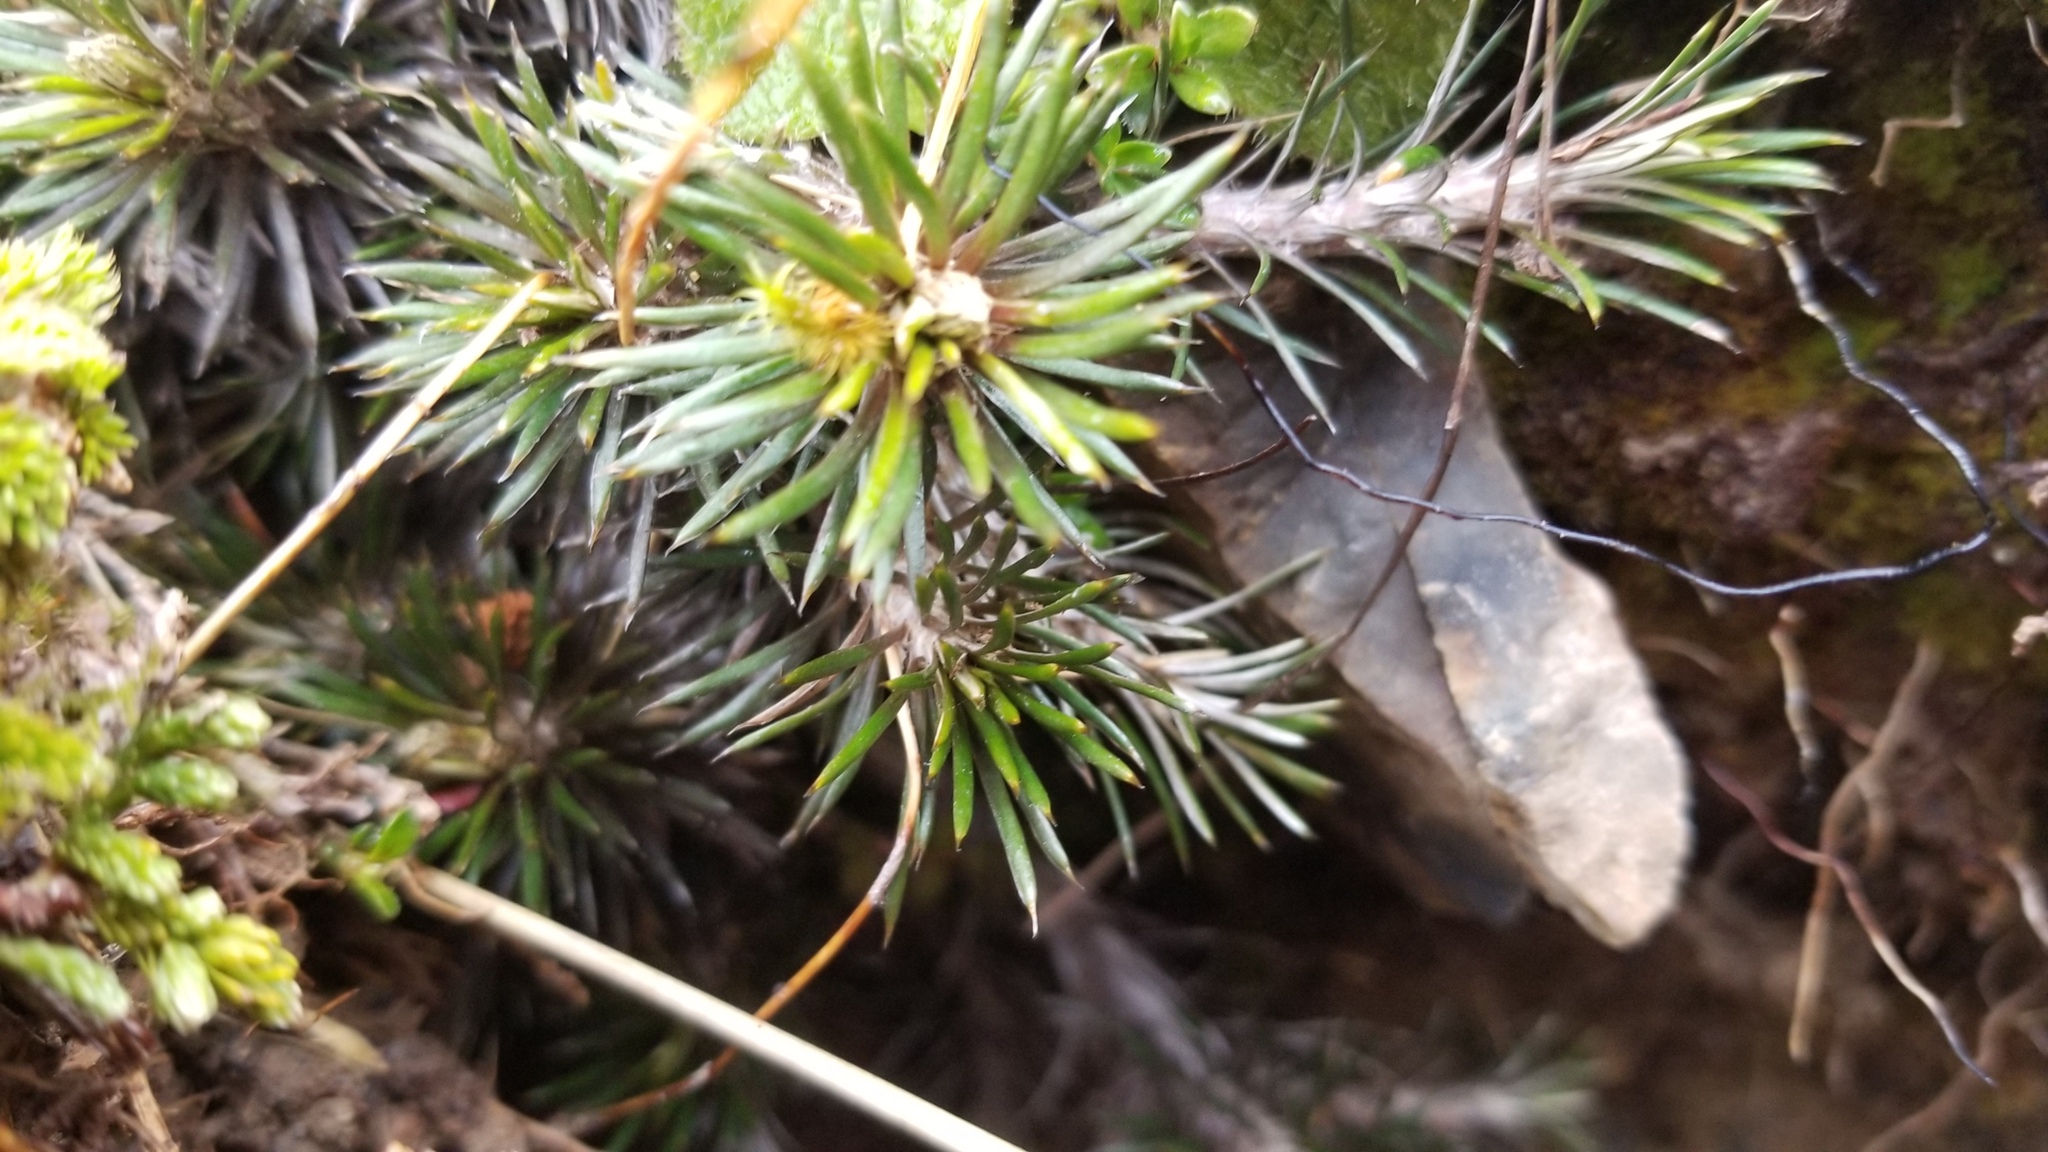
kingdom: Plantae
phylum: Tracheophyta
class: Magnoliopsida
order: Asterales
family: Asteraceae
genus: Celmisia
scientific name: Celmisia laricifolia
